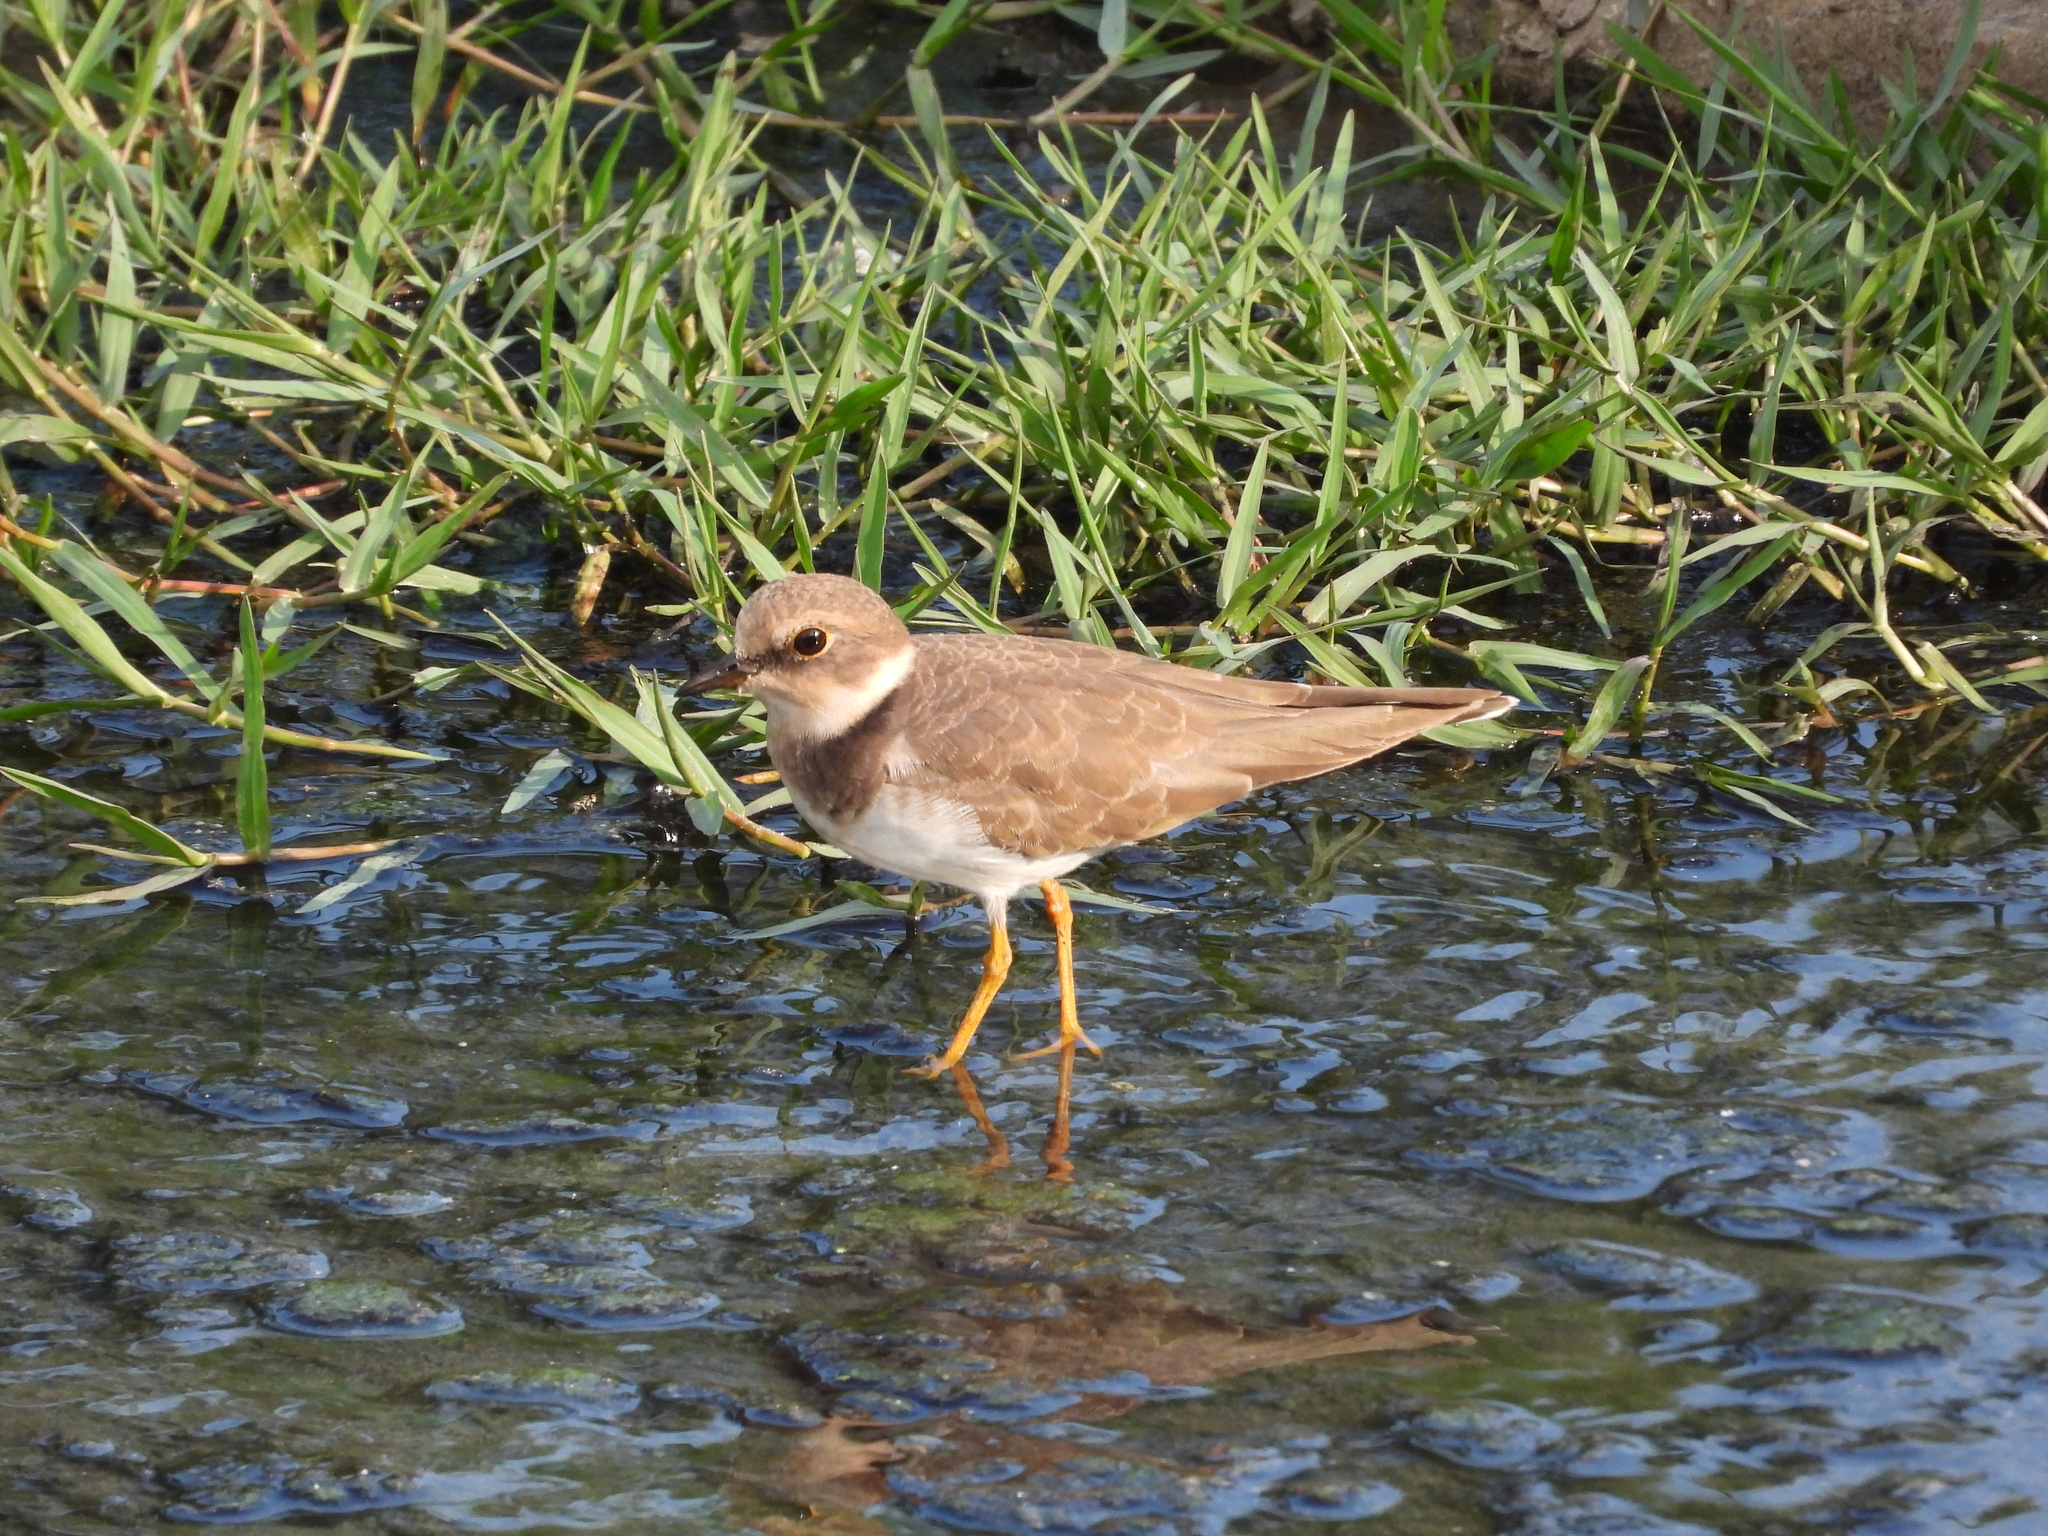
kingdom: Animalia
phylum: Chordata
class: Aves
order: Charadriiformes
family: Charadriidae
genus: Charadrius
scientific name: Charadrius dubius
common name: Little ringed plover
